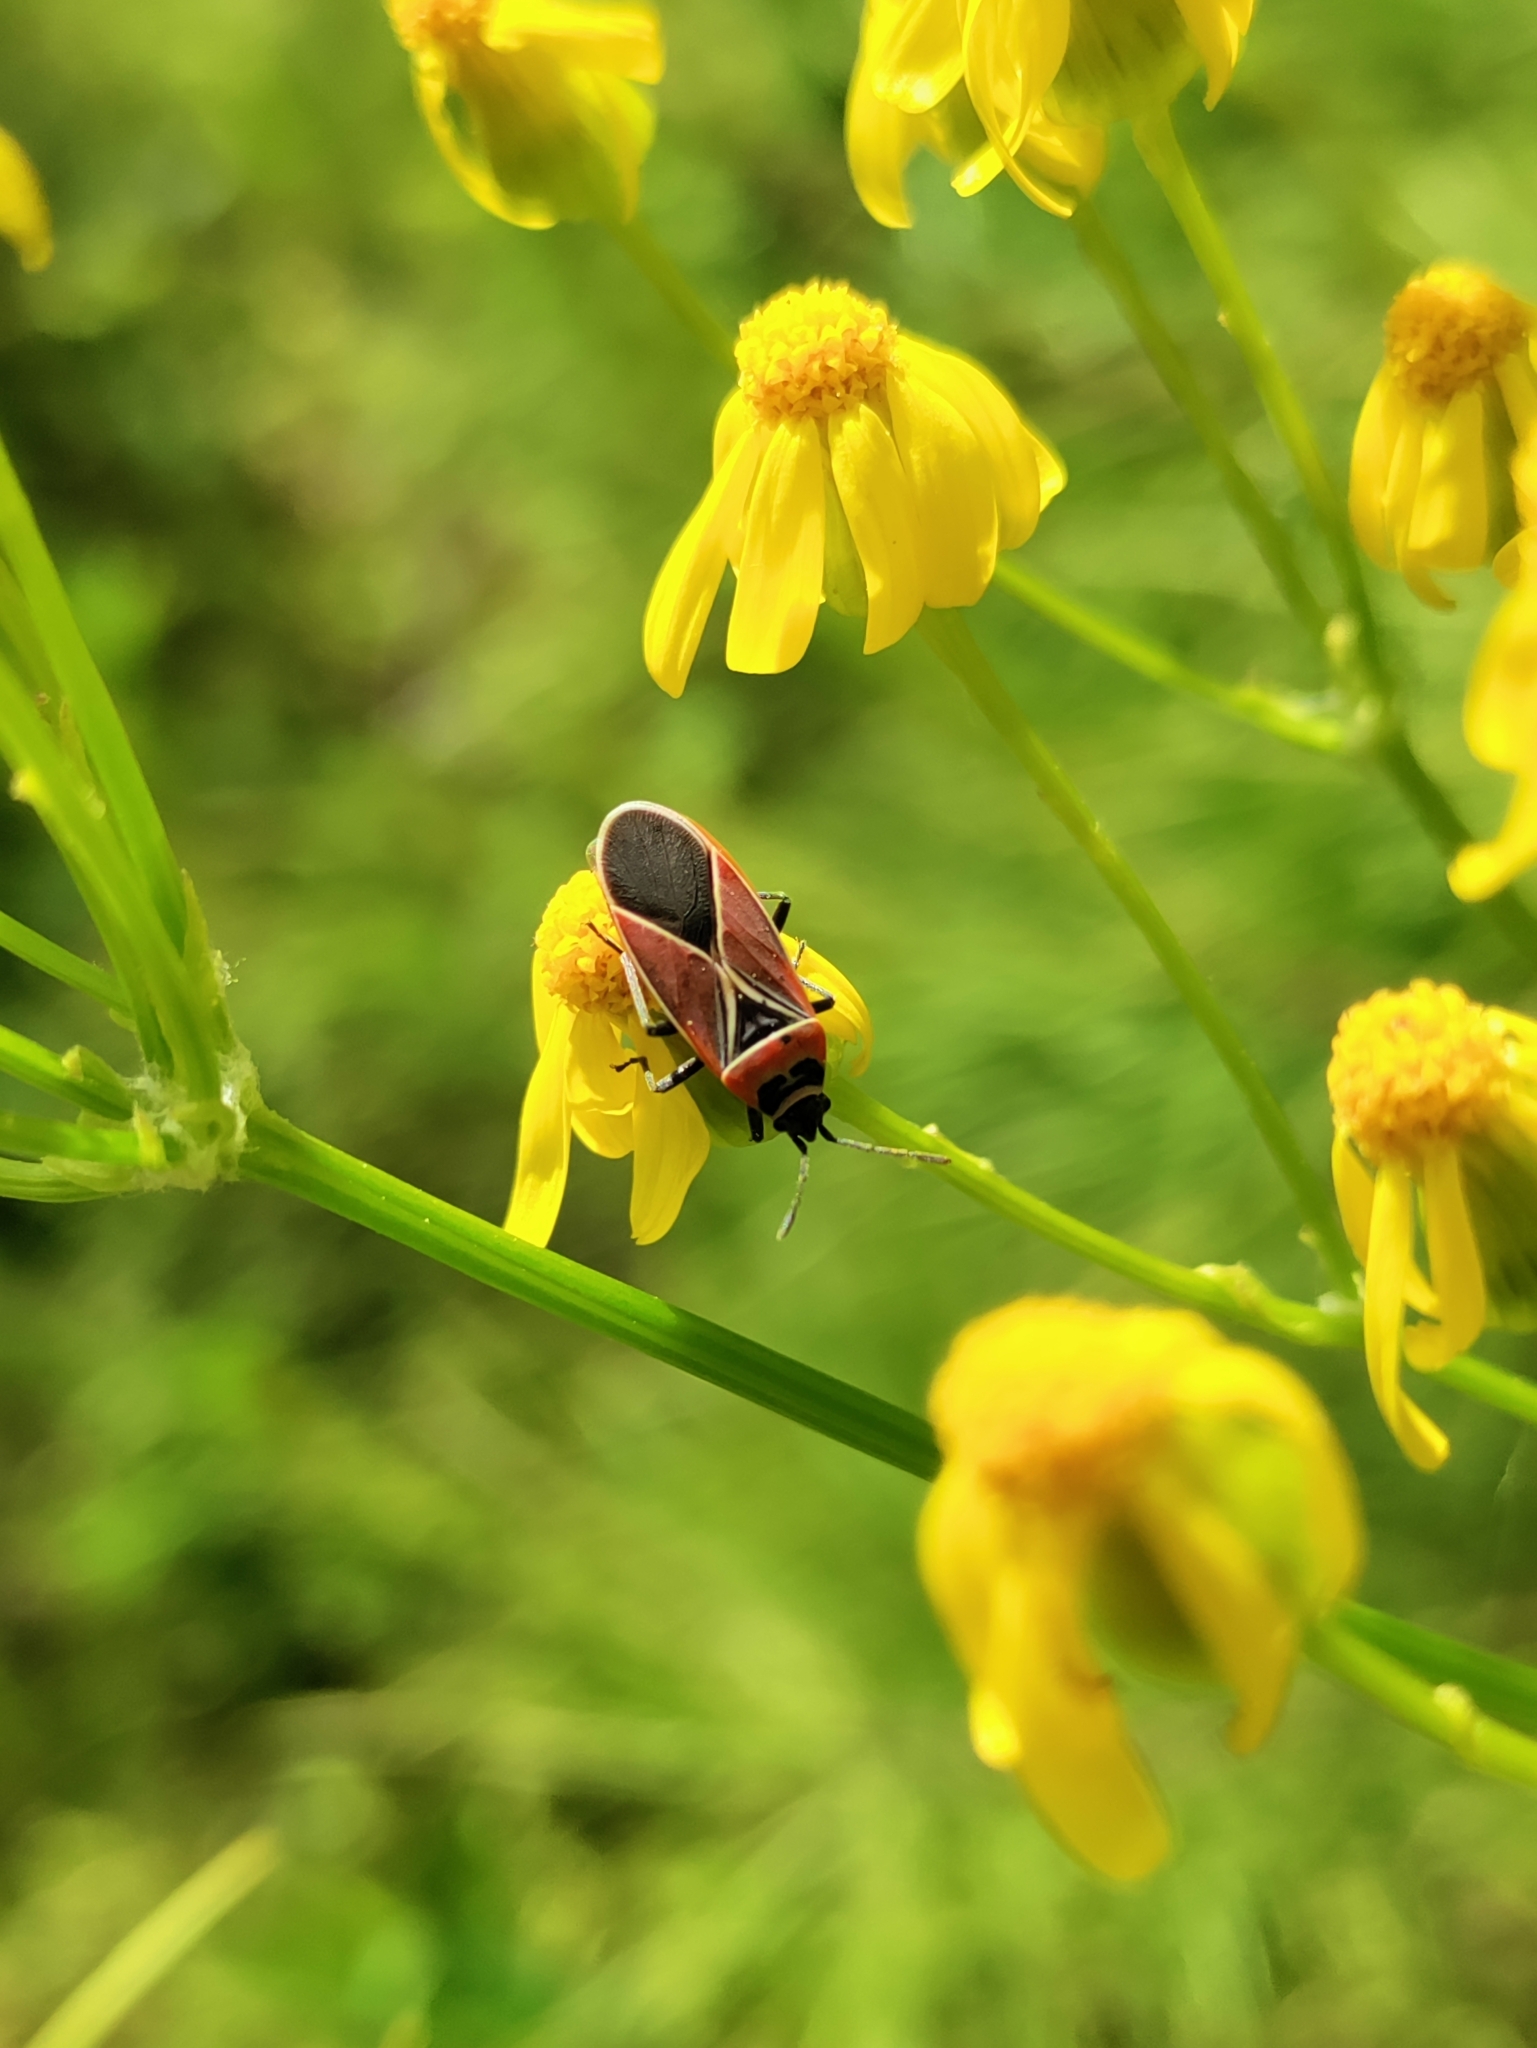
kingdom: Animalia
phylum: Arthropoda
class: Insecta
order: Hemiptera
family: Lygaeidae
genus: Neacoryphus
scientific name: Neacoryphus bicrucis
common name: Lygaeid bug
